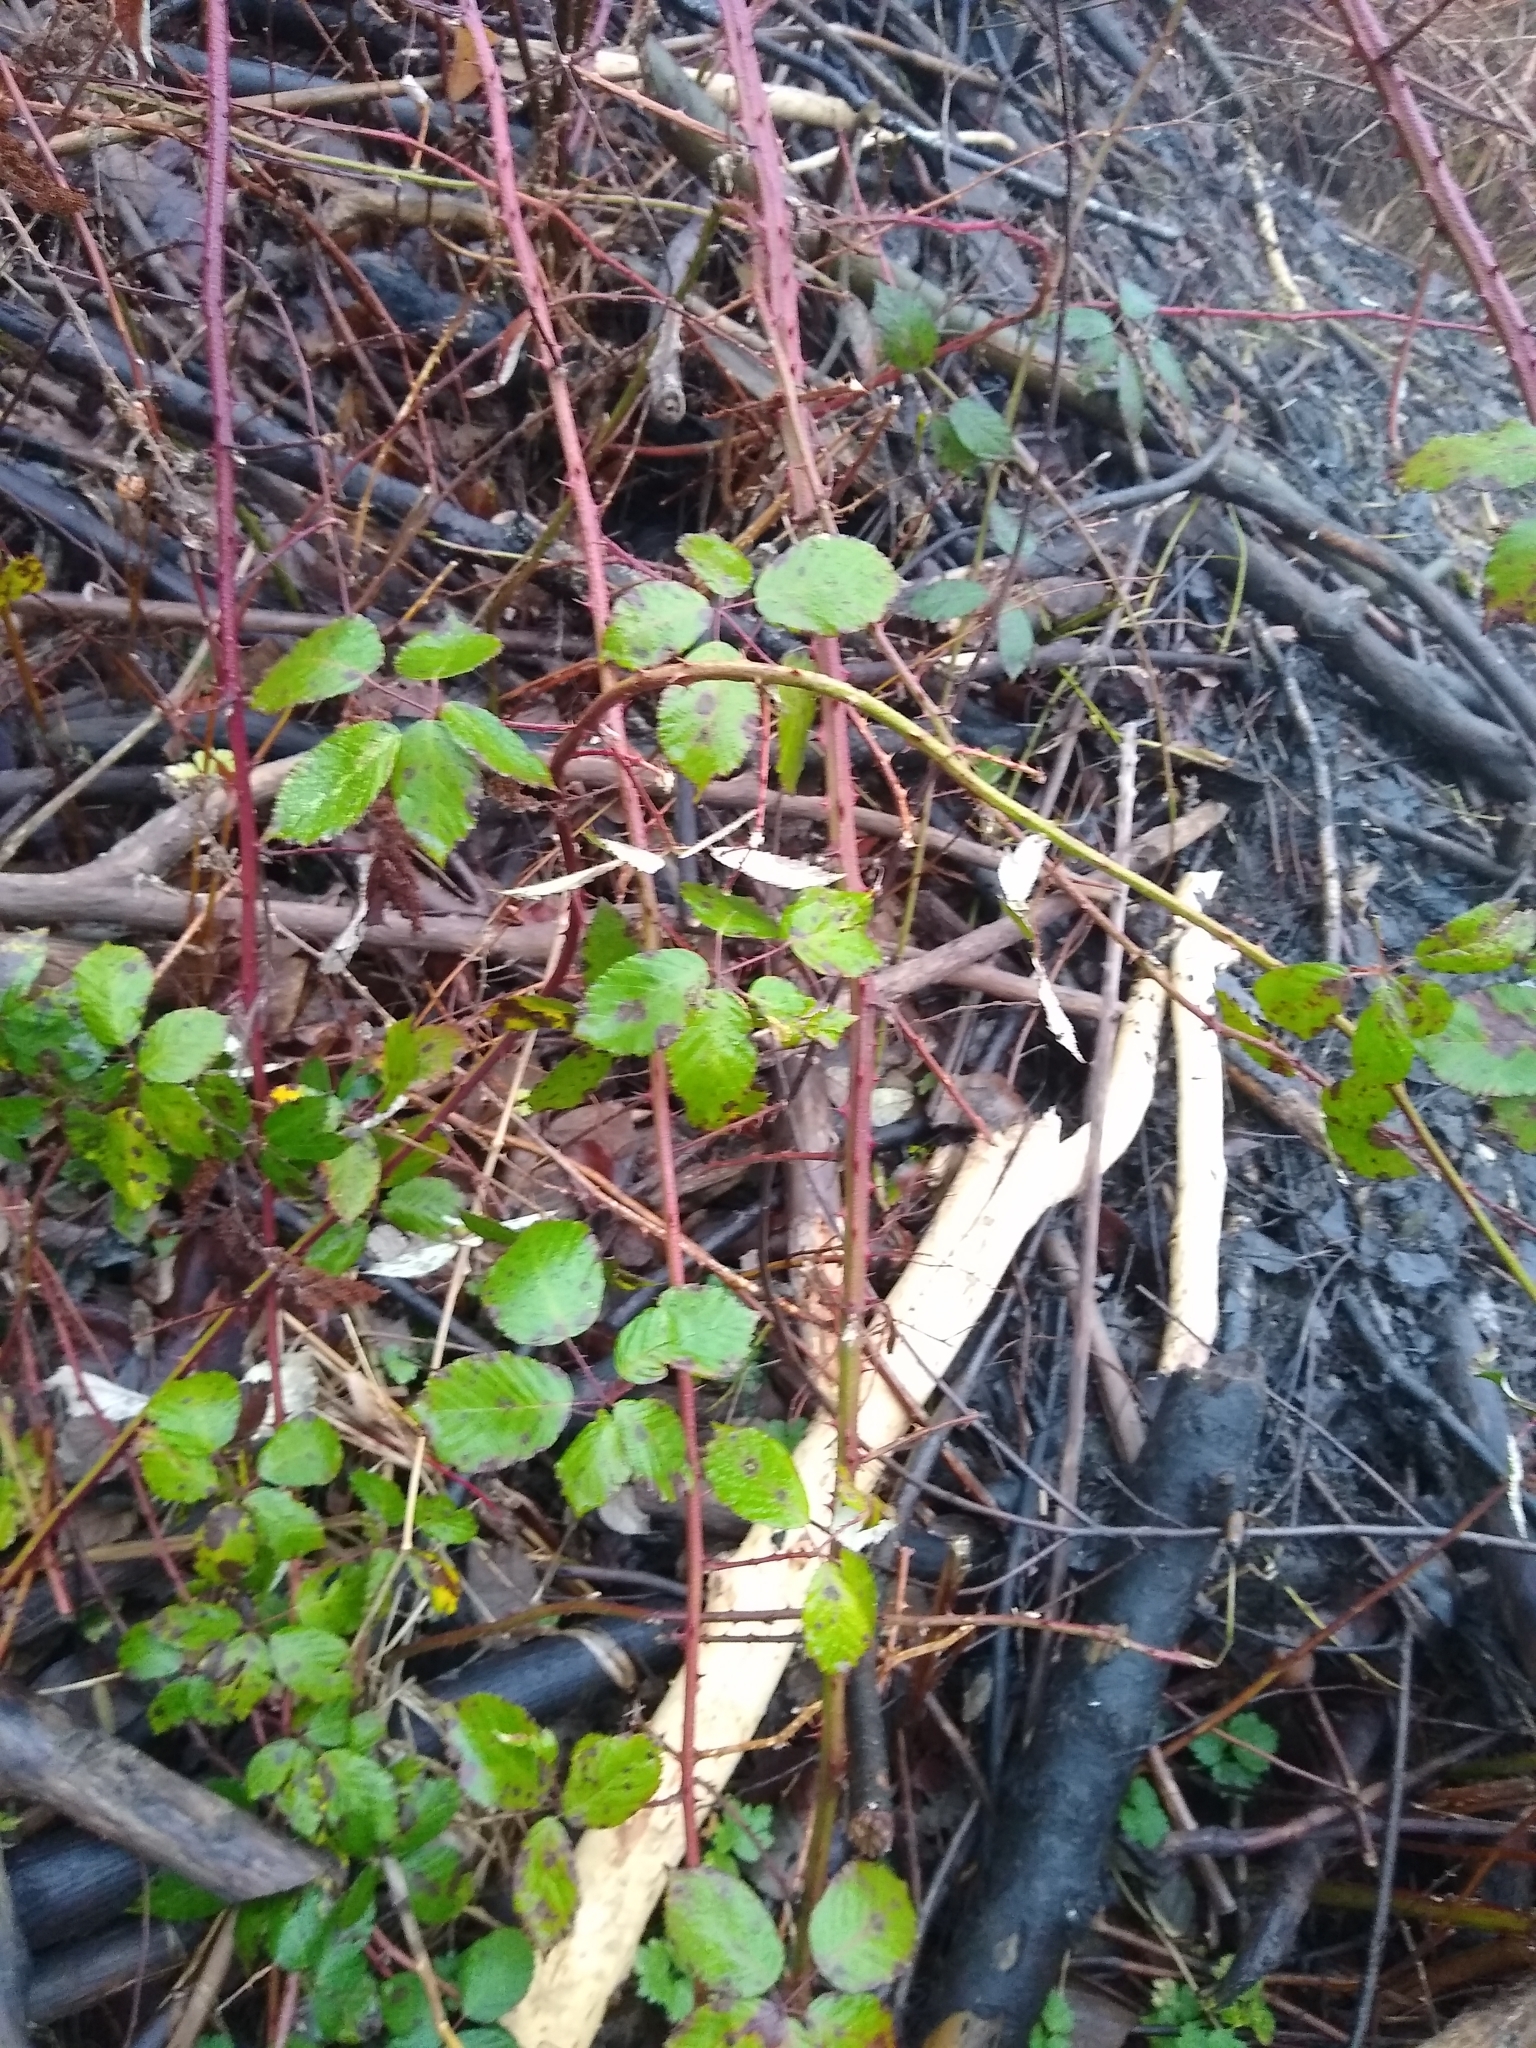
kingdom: Plantae
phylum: Tracheophyta
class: Magnoliopsida
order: Rosales
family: Rosaceae
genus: Rubus
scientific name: Rubus bifrons
